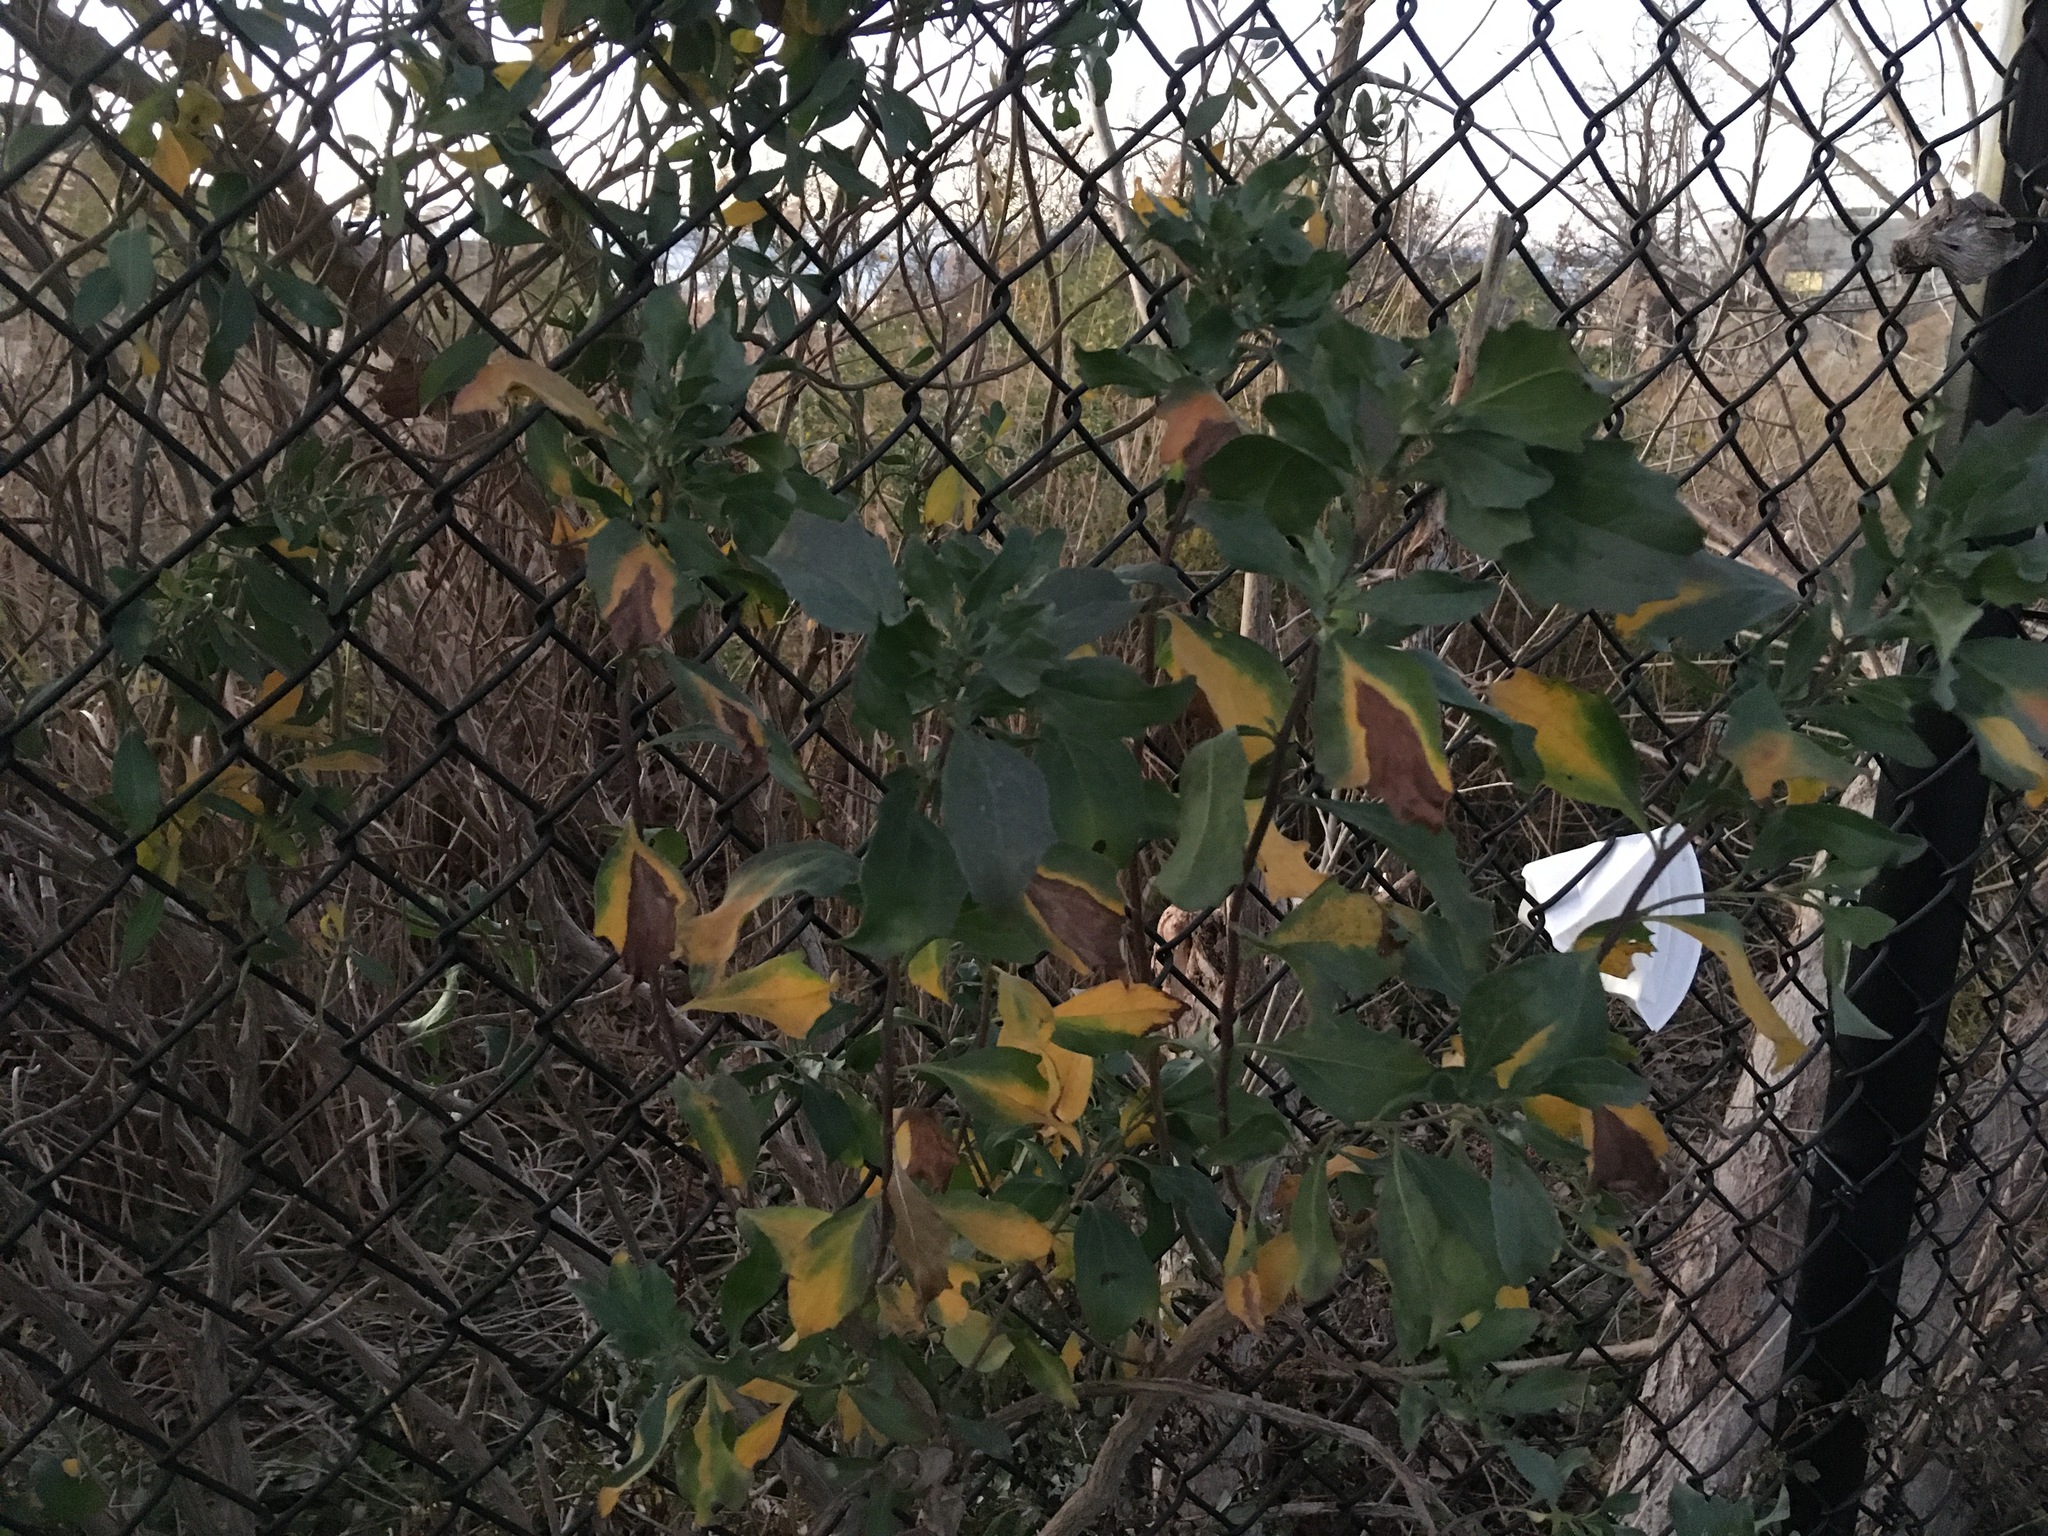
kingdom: Plantae
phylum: Tracheophyta
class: Magnoliopsida
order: Asterales
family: Asteraceae
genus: Baccharis
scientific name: Baccharis halimifolia
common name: Eastern baccharis
